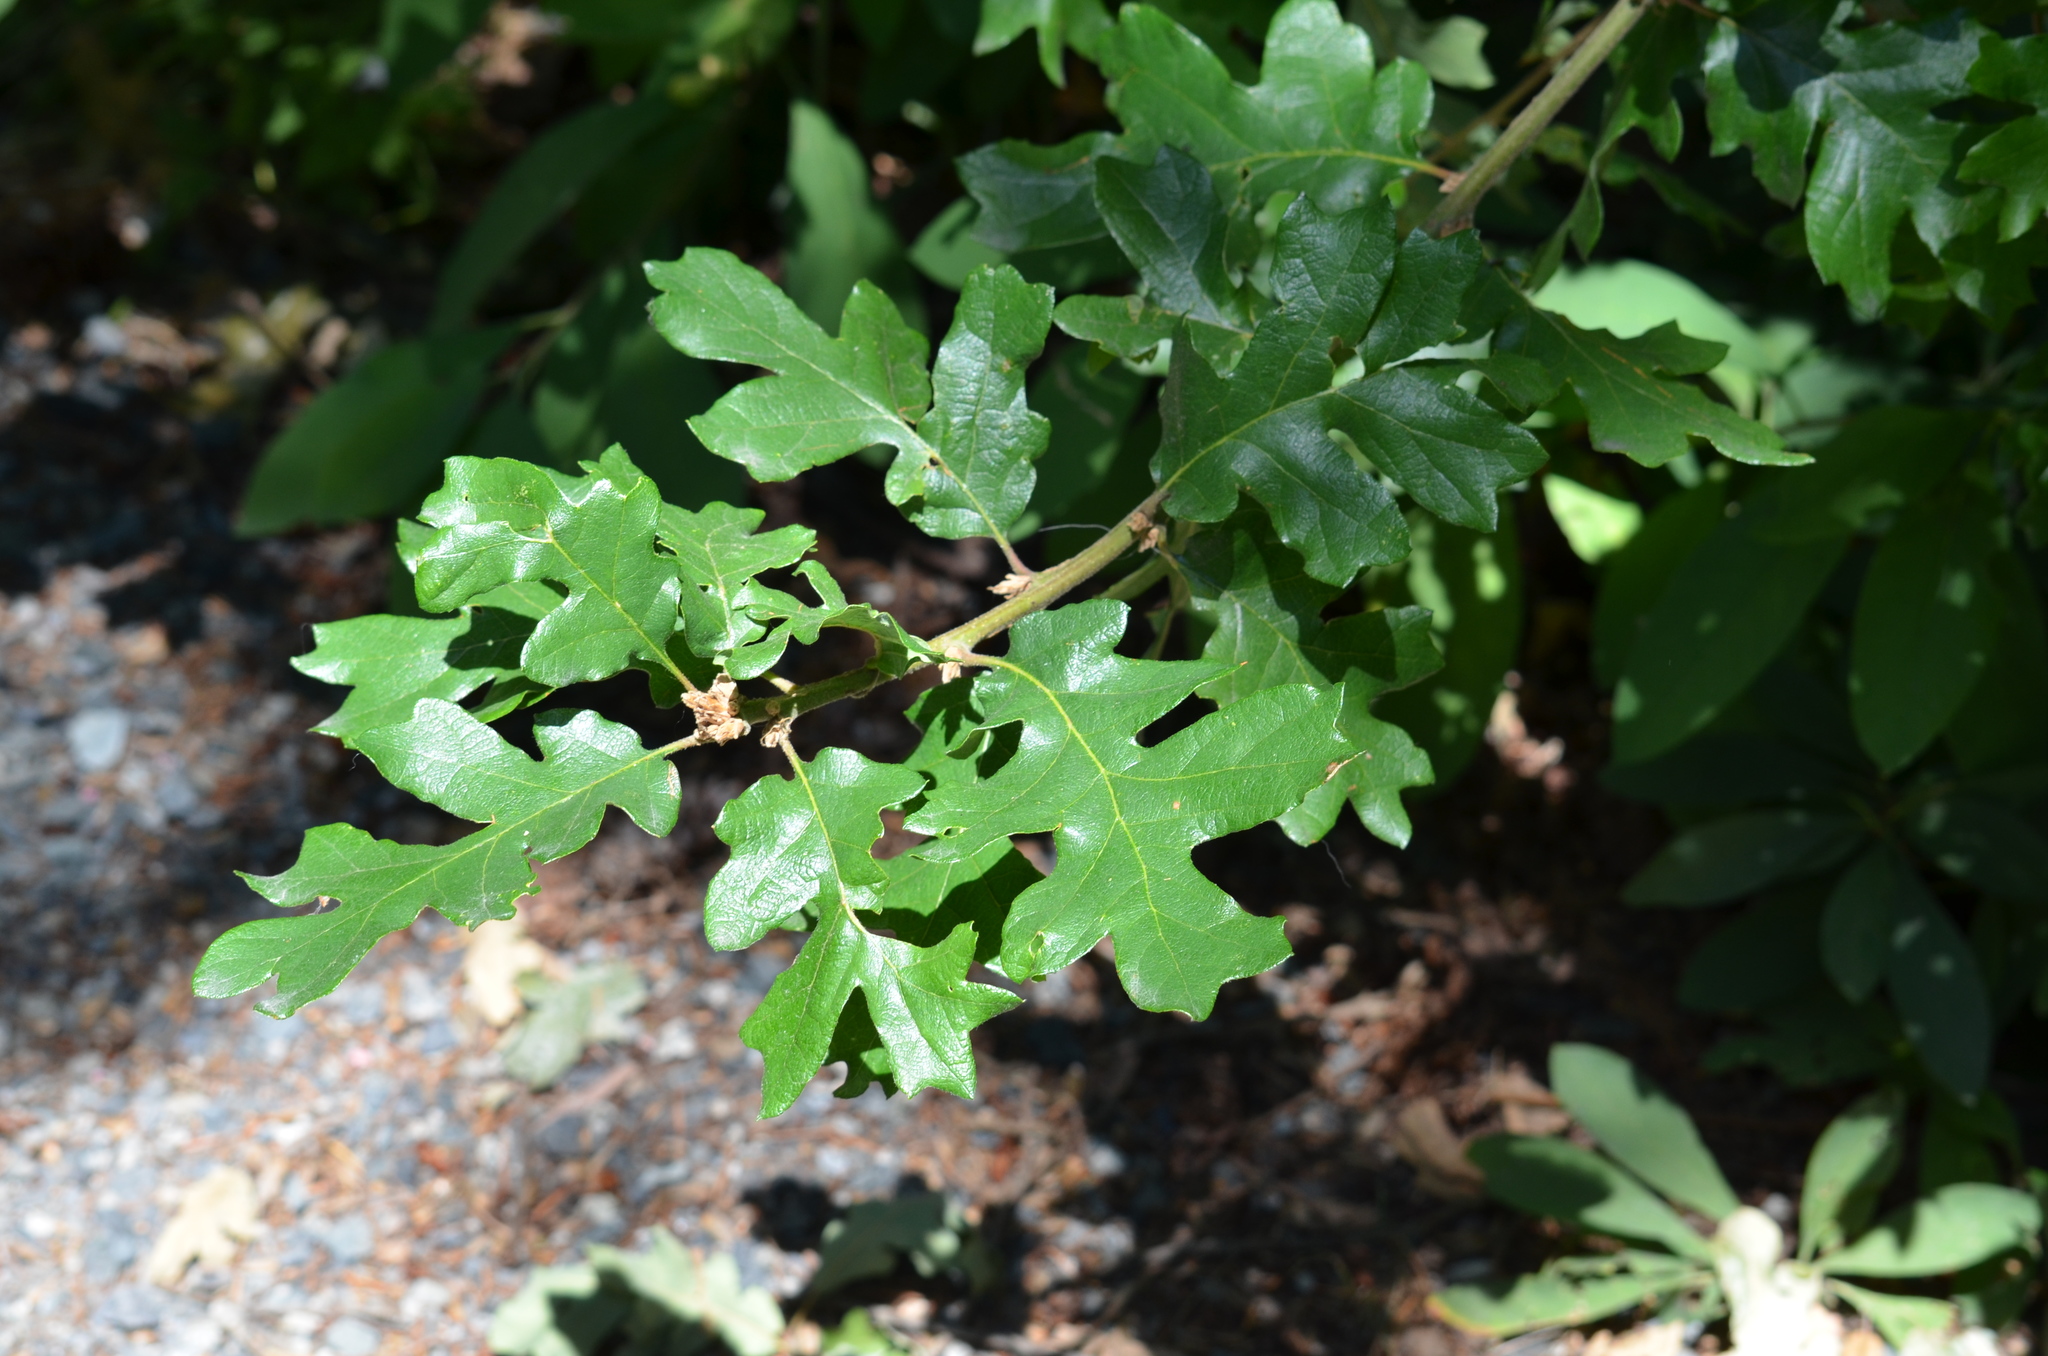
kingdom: Plantae
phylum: Tracheophyta
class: Magnoliopsida
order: Fagales
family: Fagaceae
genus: Quercus
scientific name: Quercus garryana
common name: Garry oak
